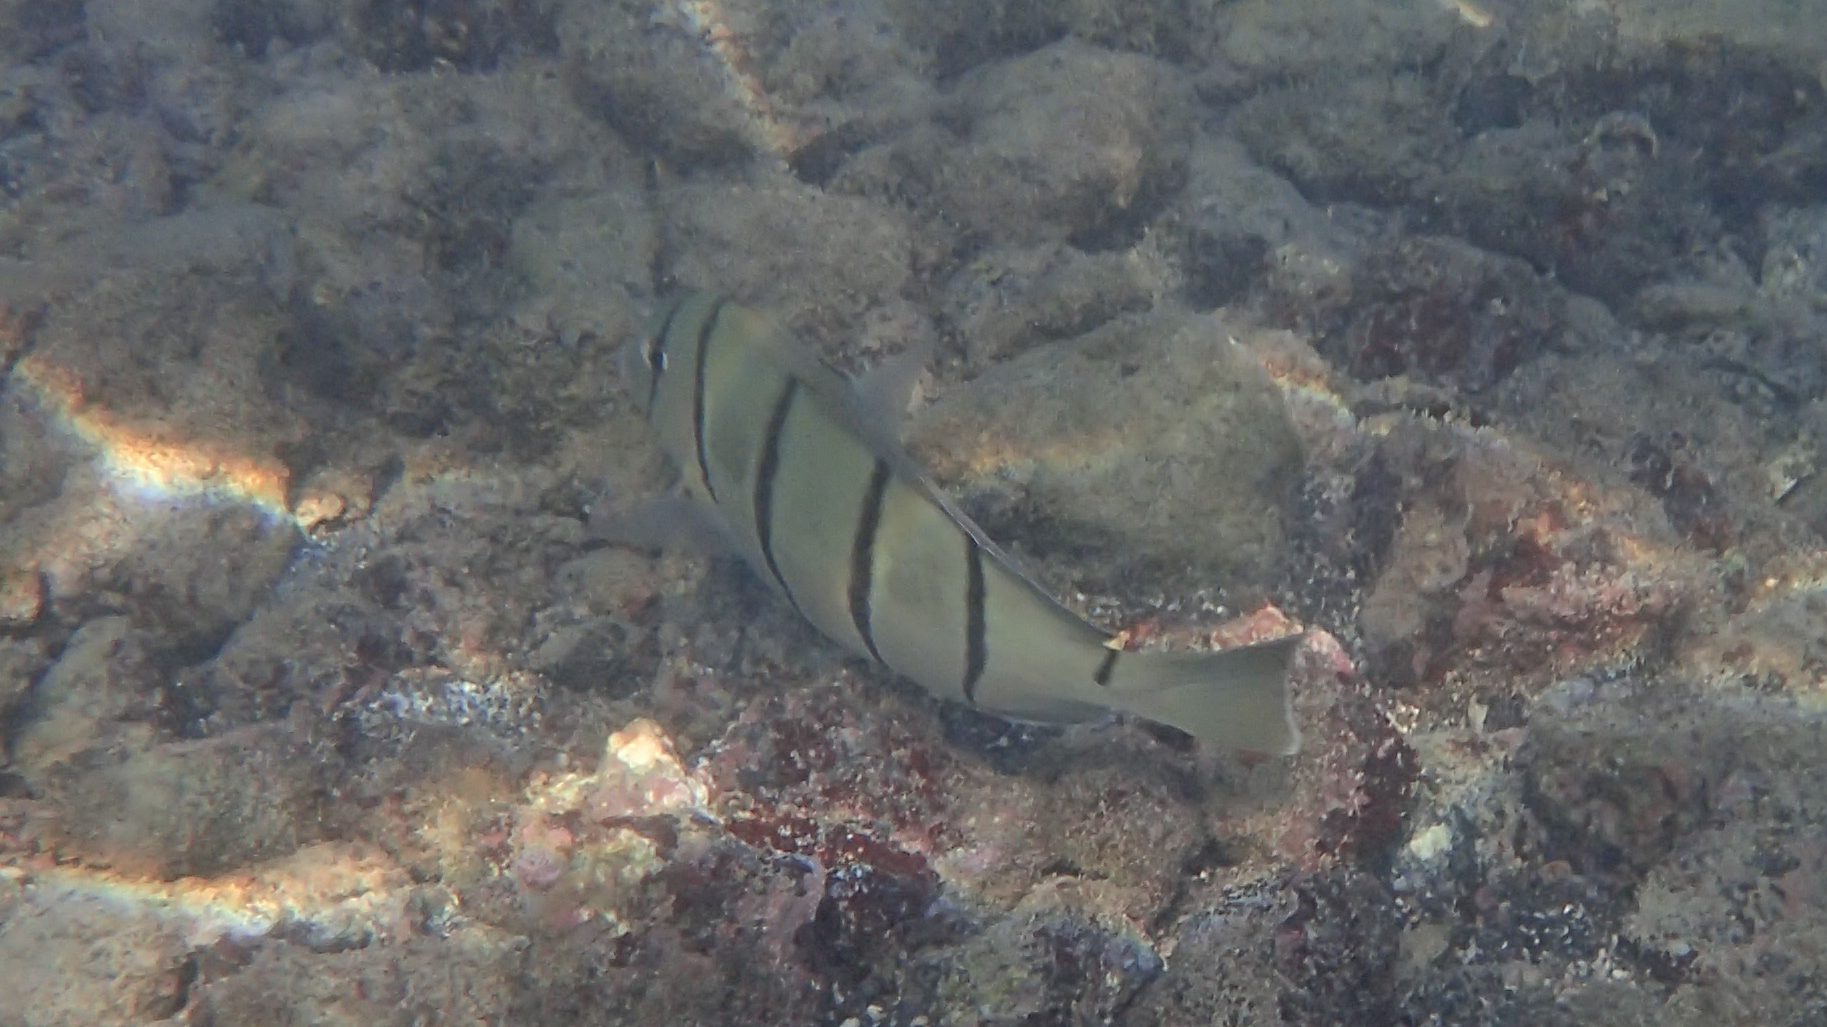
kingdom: Animalia
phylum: Chordata
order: Perciformes
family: Acanthuridae
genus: Acanthurus
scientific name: Acanthurus triostegus
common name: Convict surgeonfish
